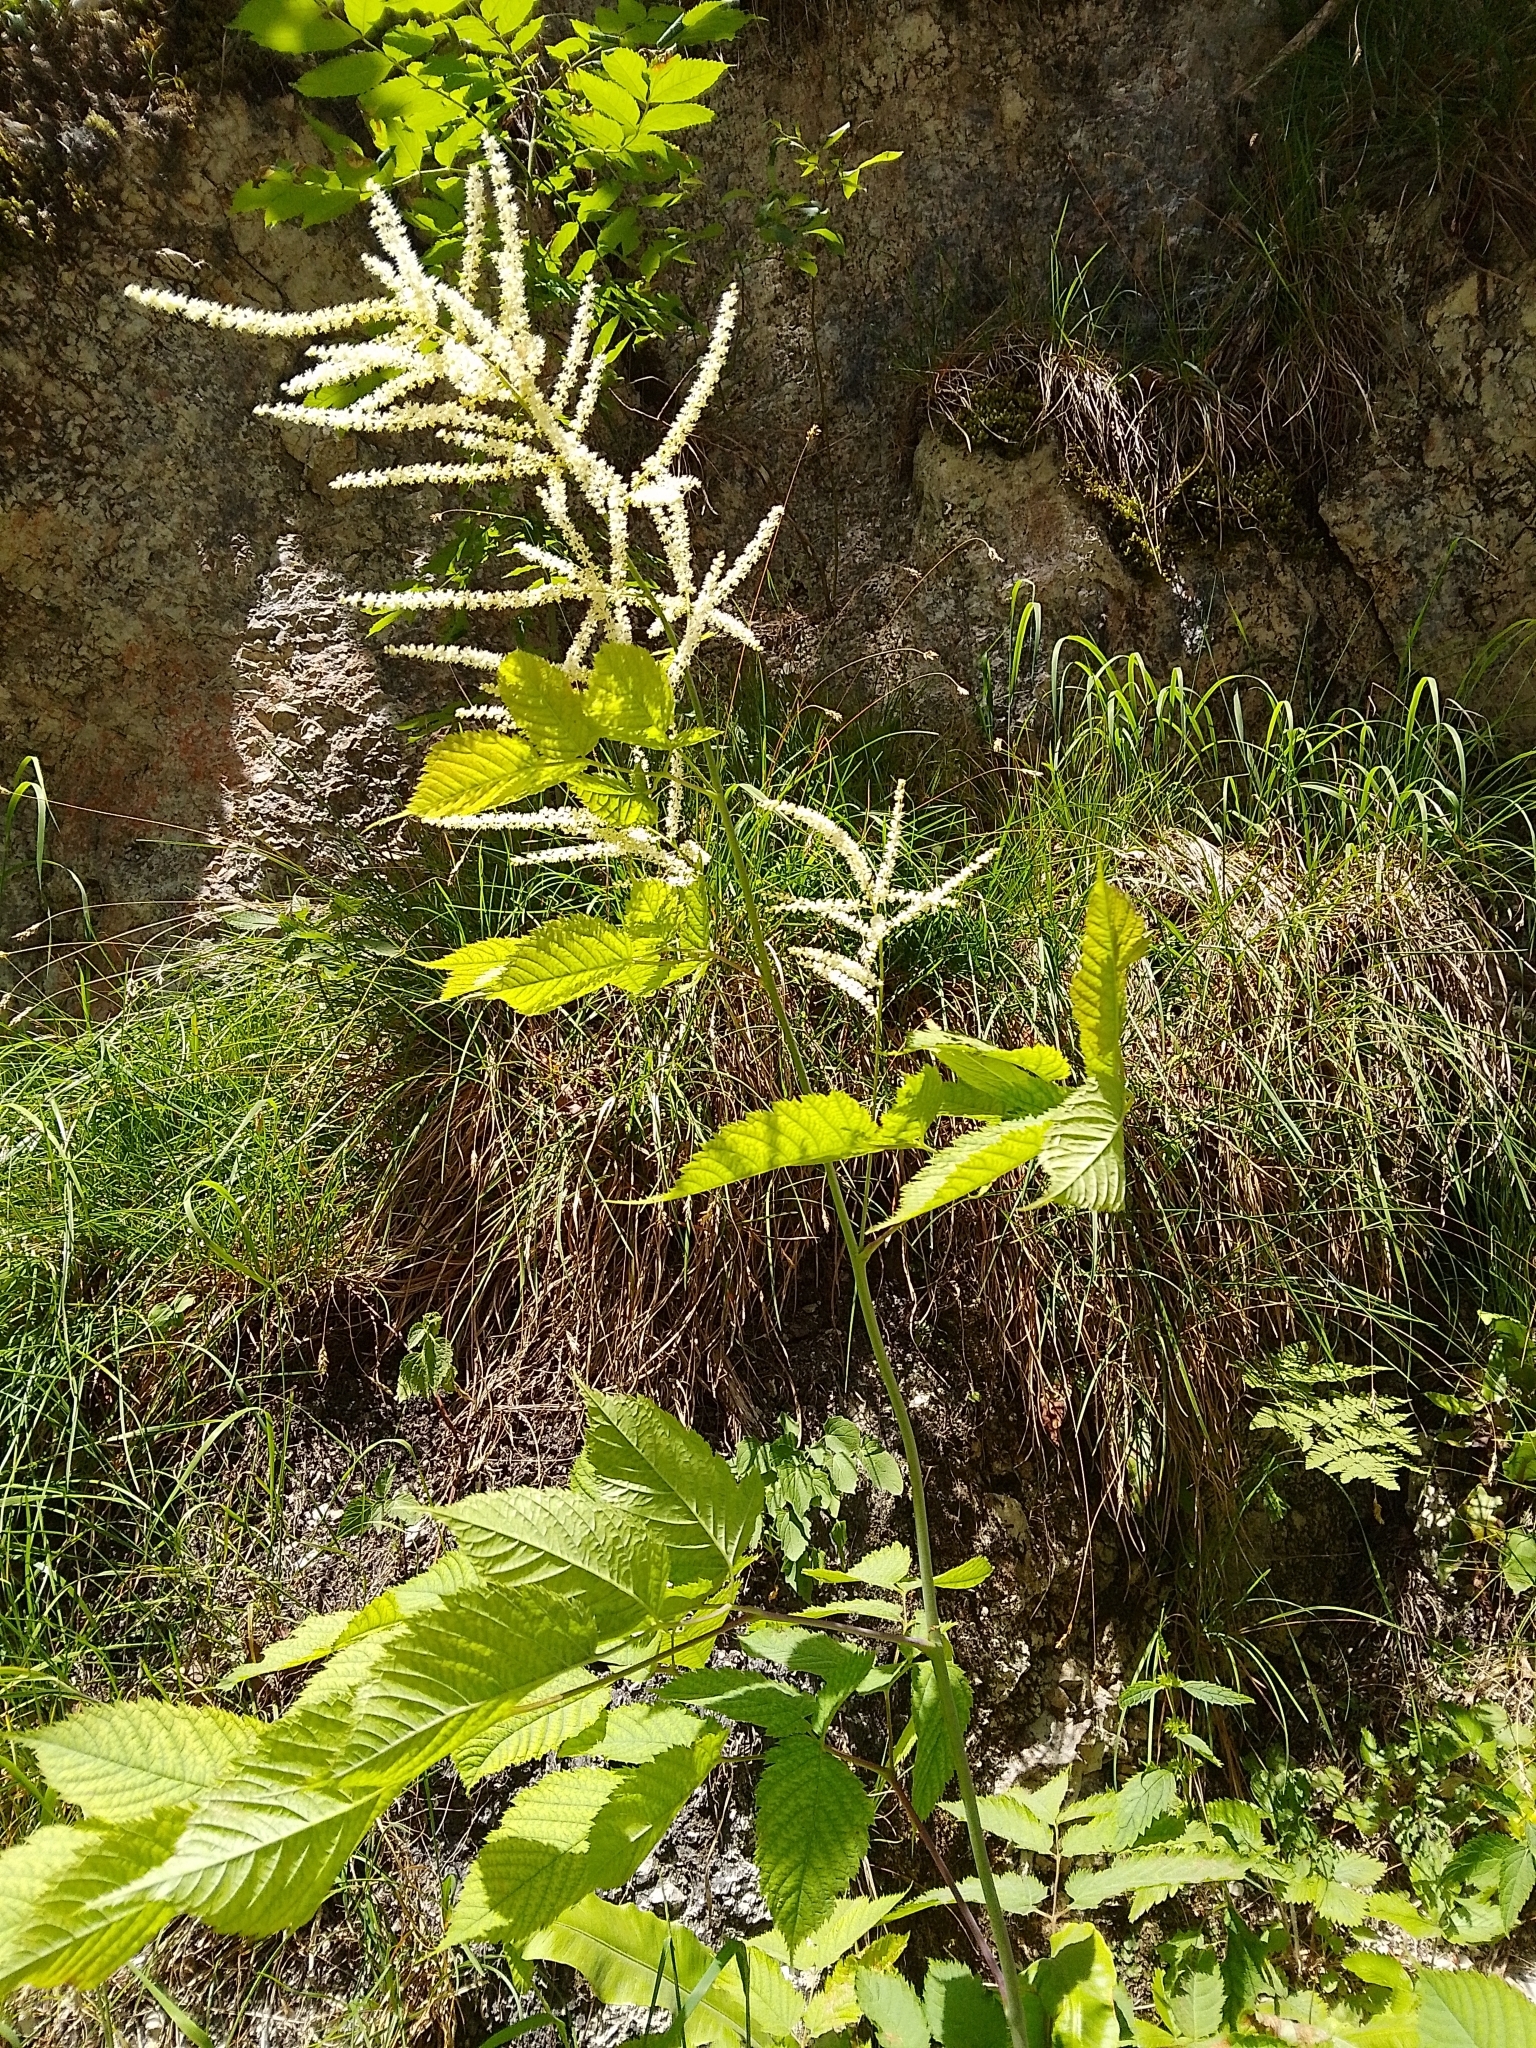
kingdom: Plantae
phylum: Tracheophyta
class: Magnoliopsida
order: Rosales
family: Rosaceae
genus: Aruncus
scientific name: Aruncus dioicus
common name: Buck's-beard
